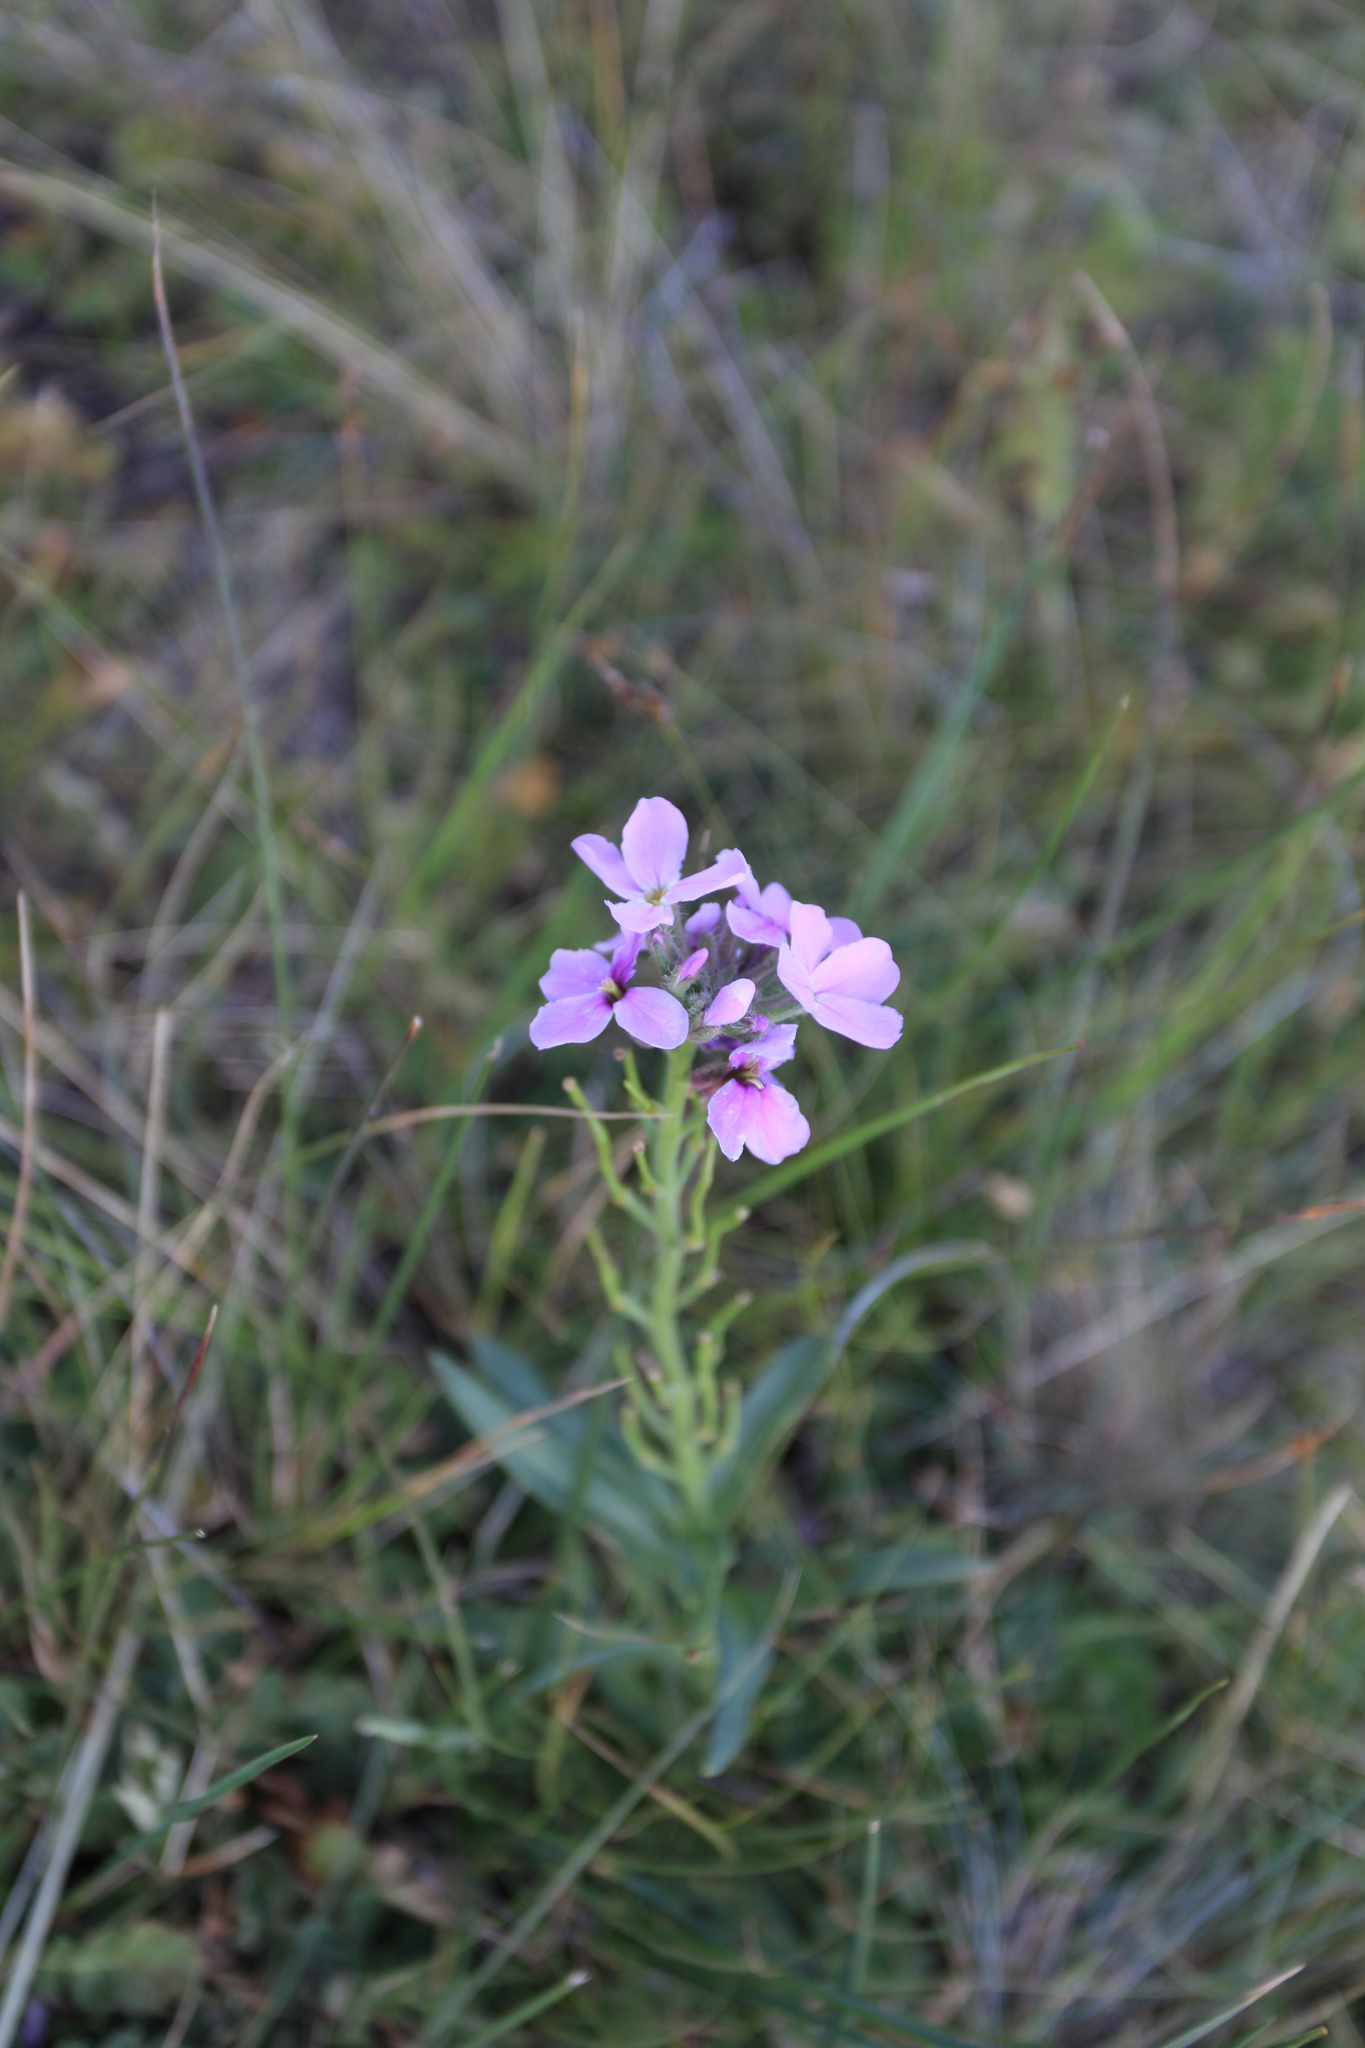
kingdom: Plantae
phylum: Tracheophyta
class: Magnoliopsida
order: Brassicales
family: Brassicaceae
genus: Clausia
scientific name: Clausia aprica
